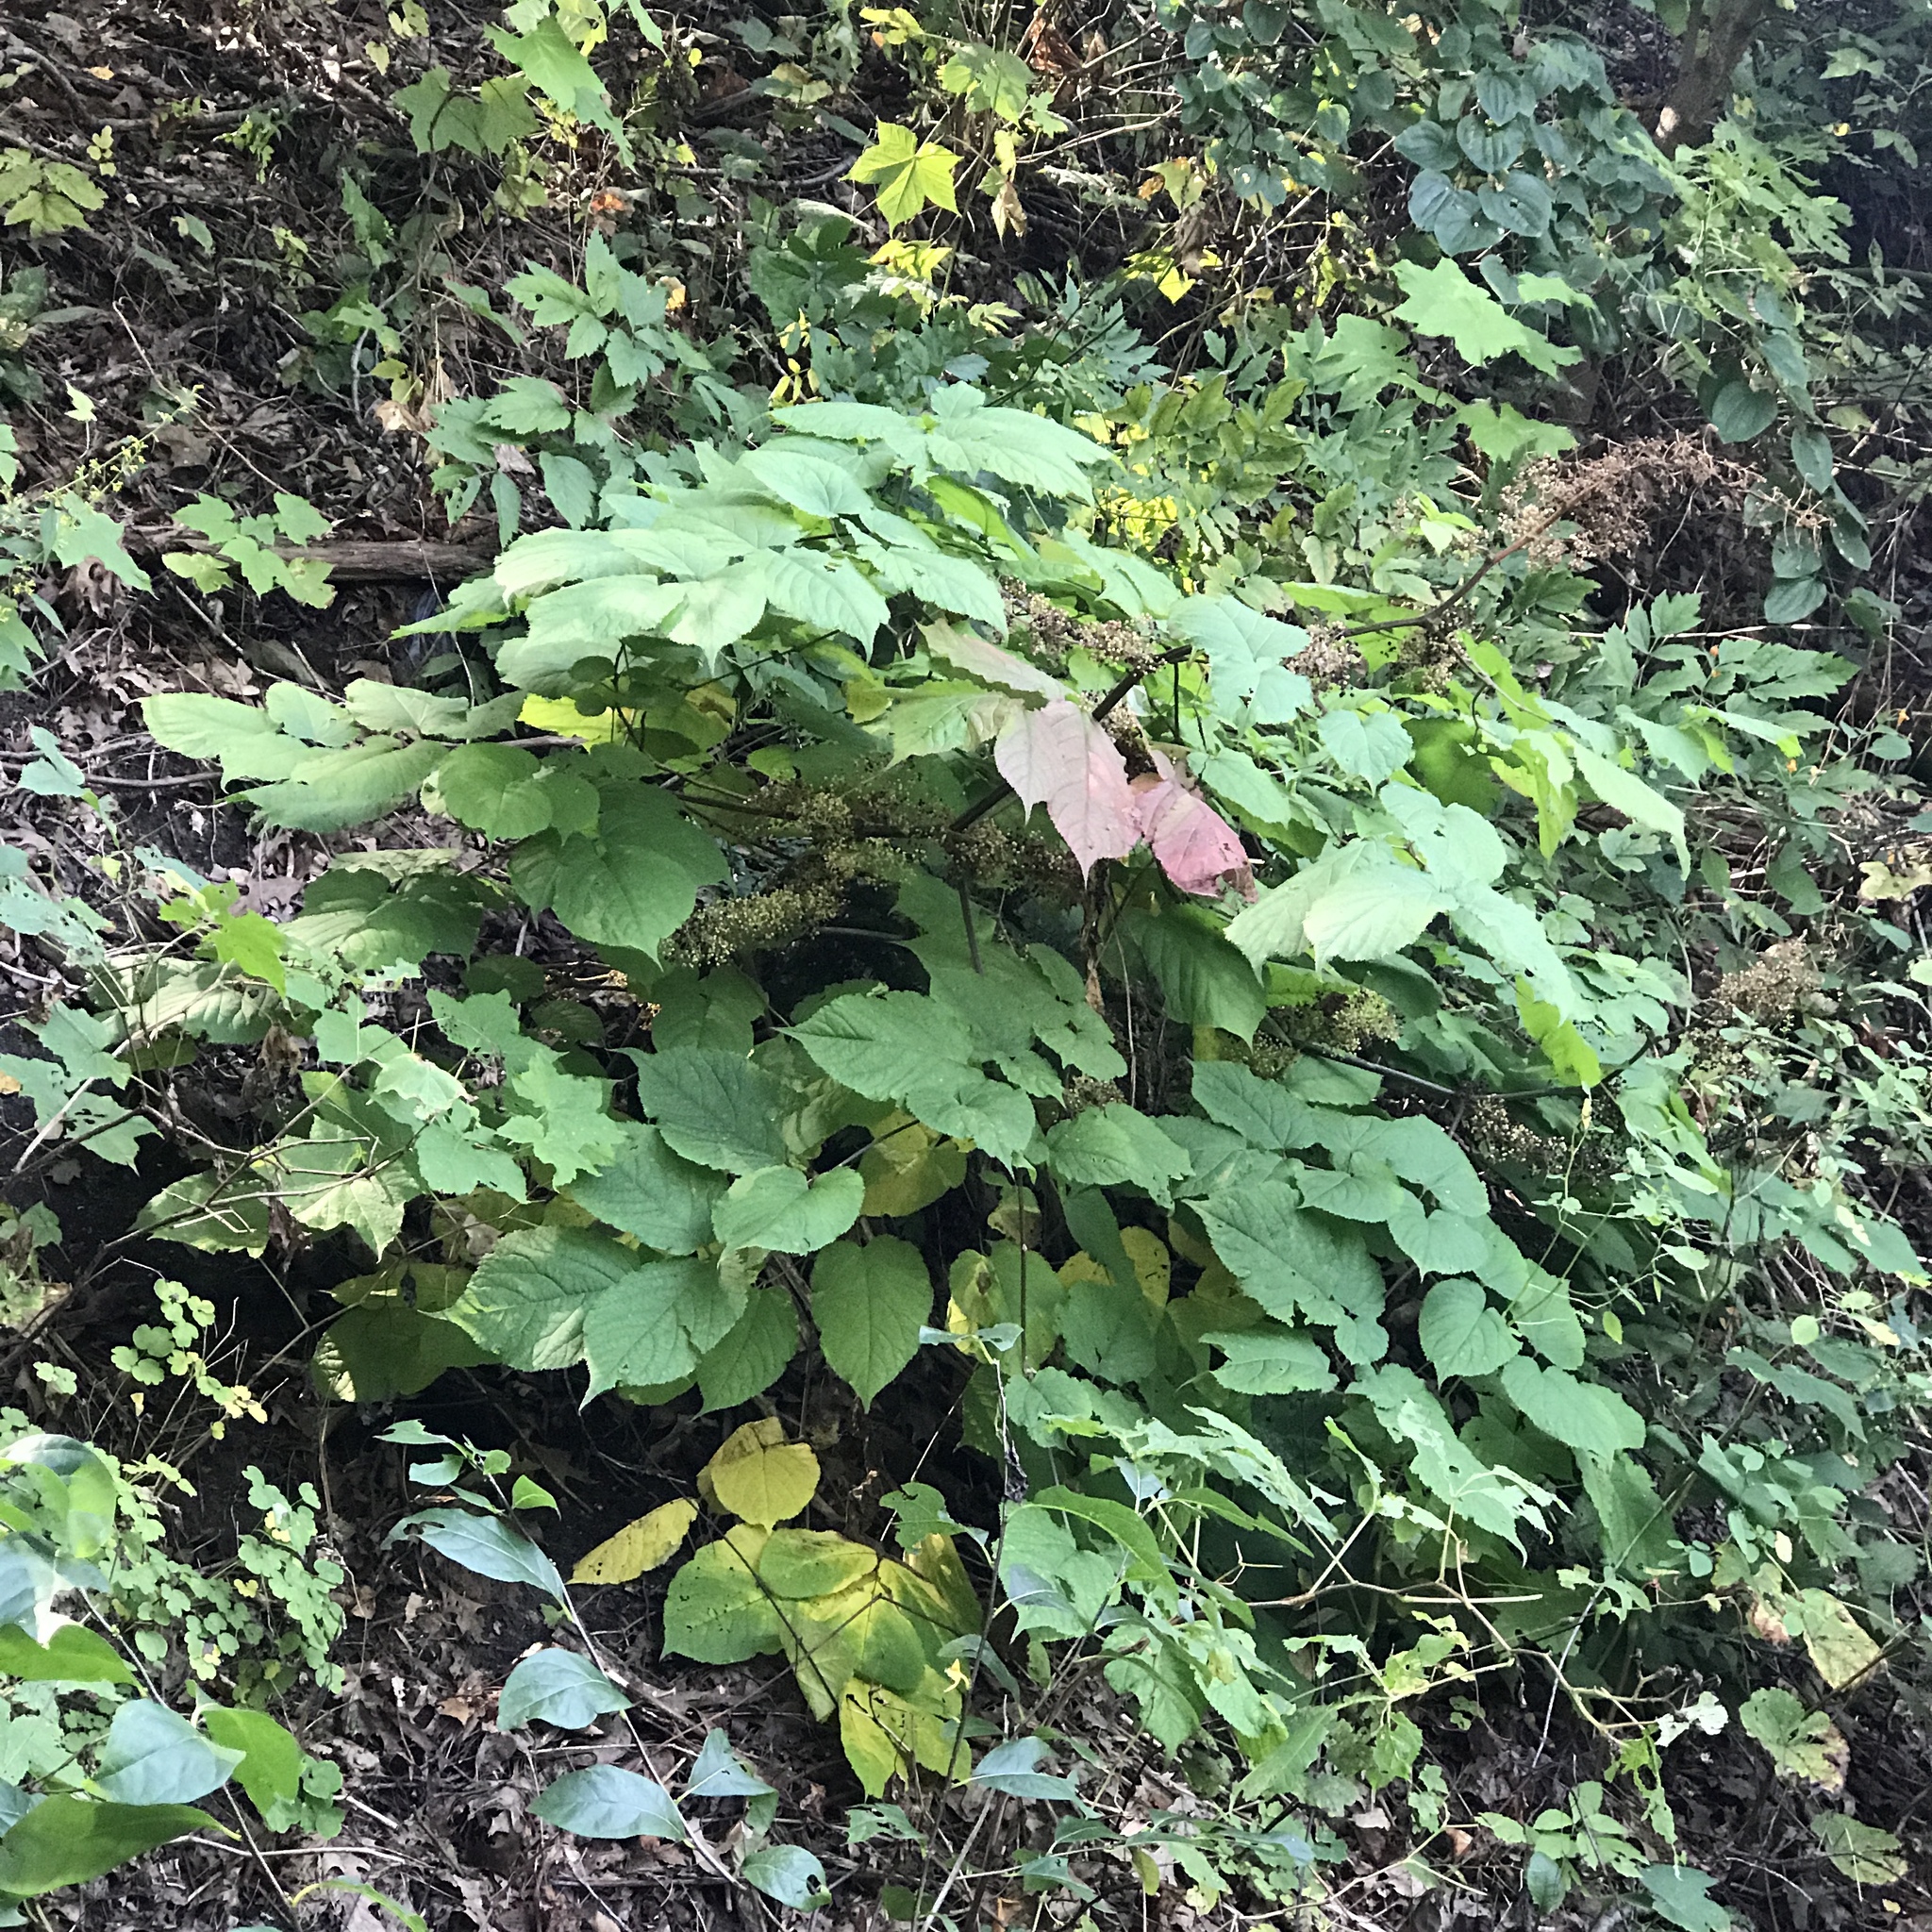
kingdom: Plantae
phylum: Tracheophyta
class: Magnoliopsida
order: Apiales
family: Araliaceae
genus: Aralia
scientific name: Aralia racemosa
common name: American-spikenard
